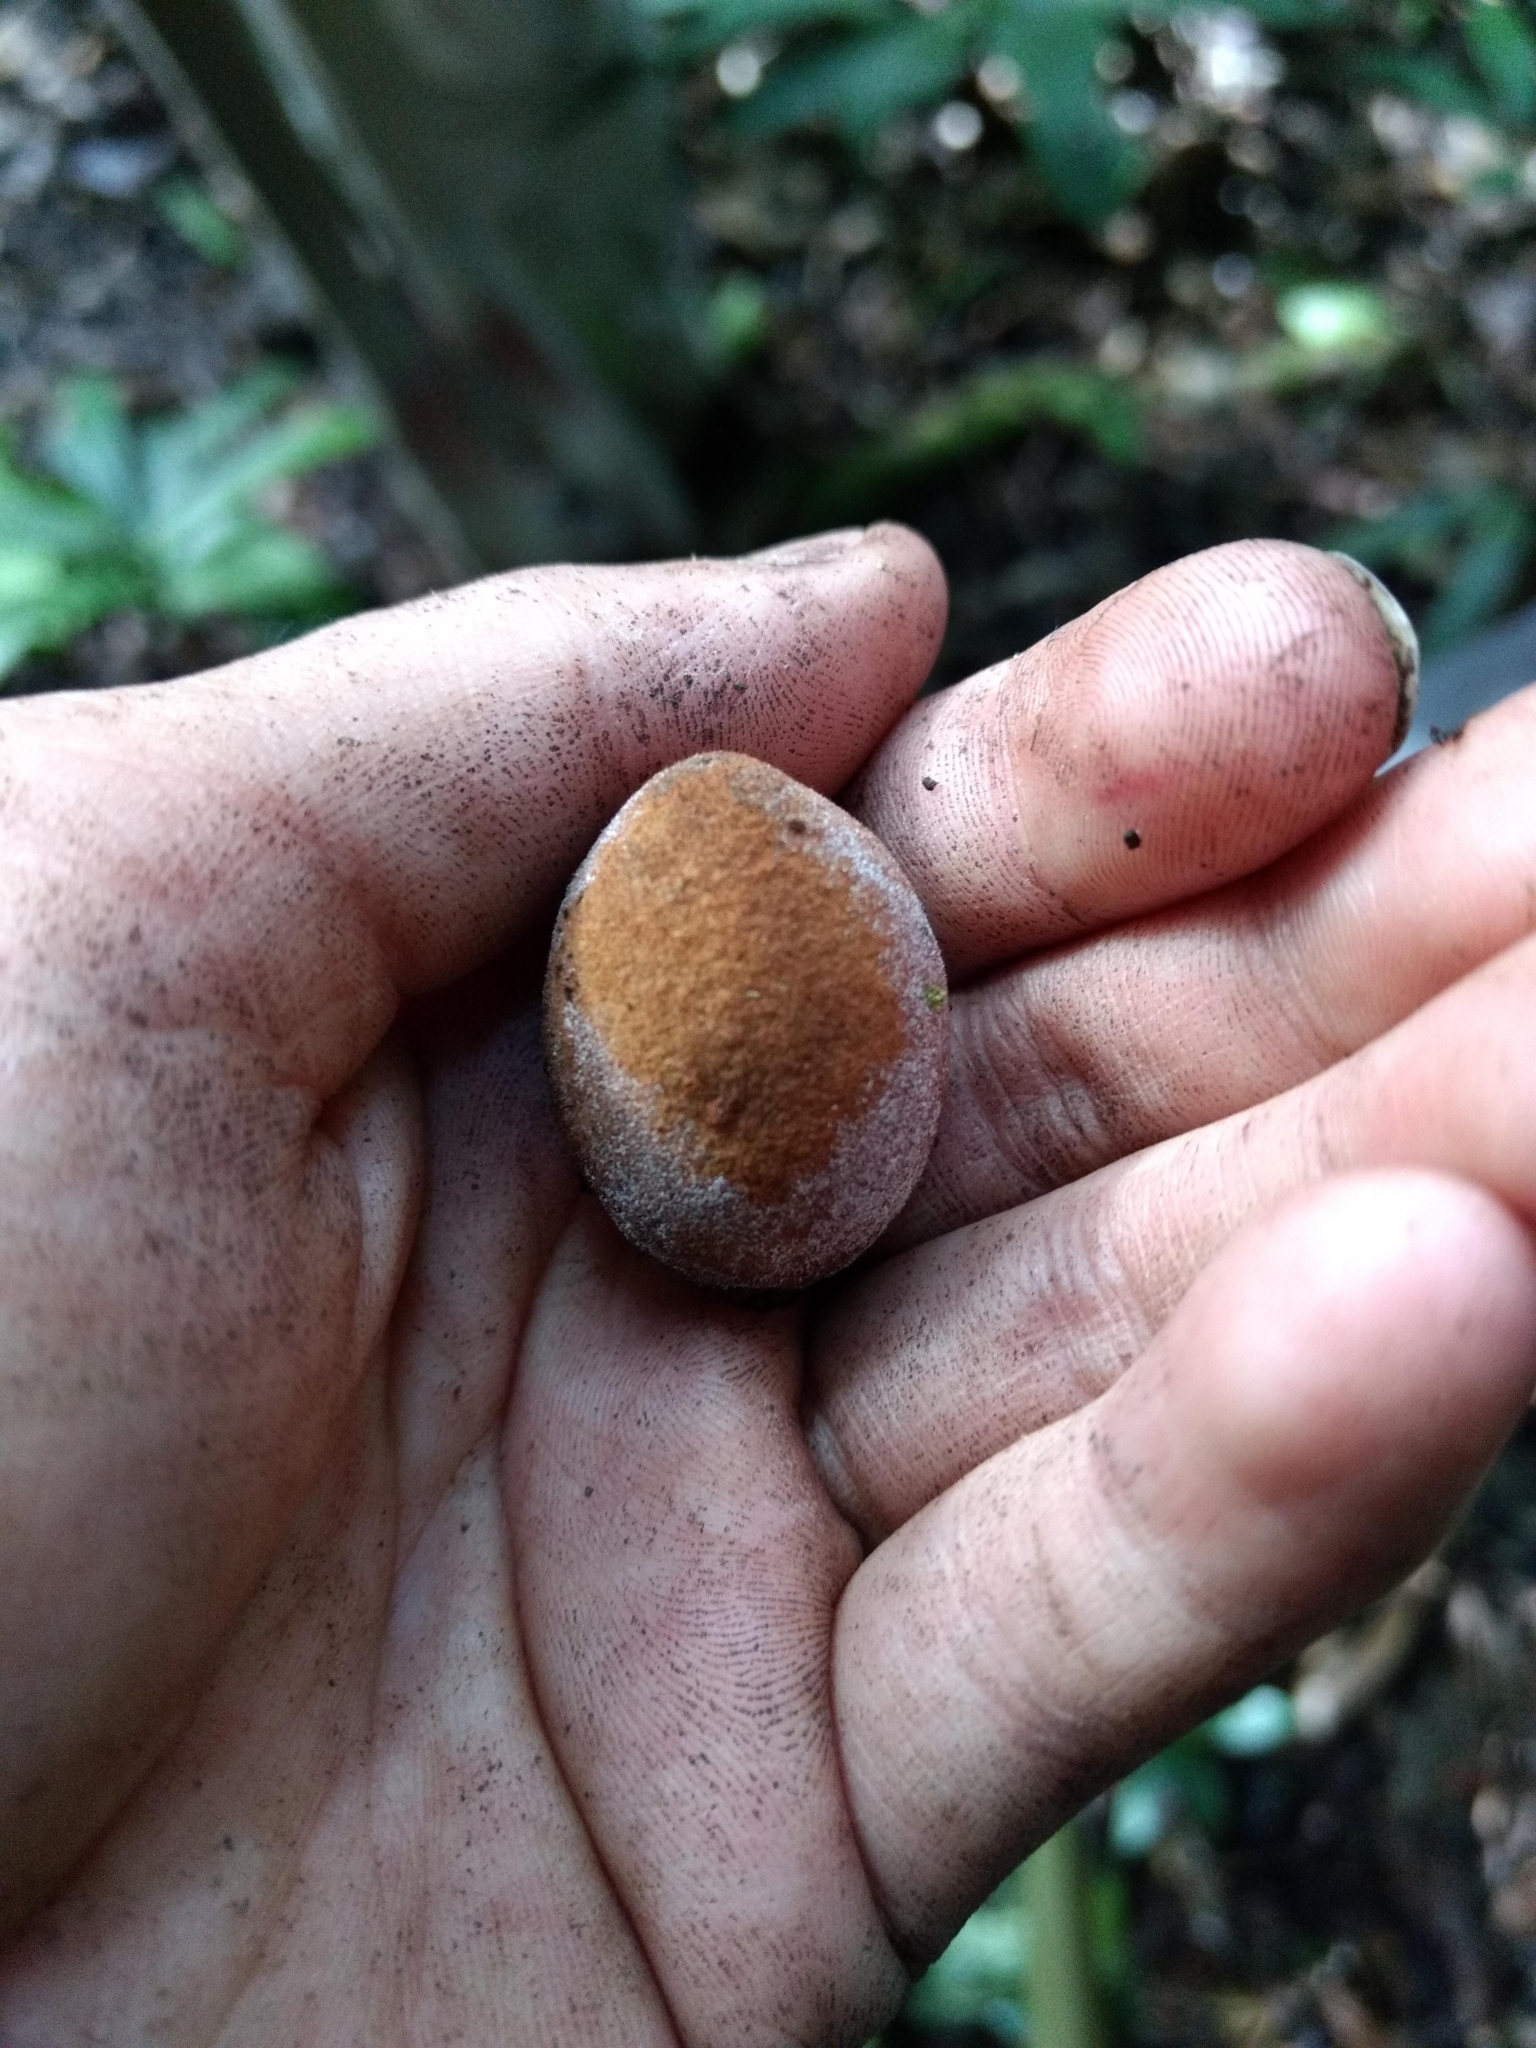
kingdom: Plantae
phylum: Tracheophyta
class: Magnoliopsida
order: Ericales
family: Sapotaceae
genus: Manilkara
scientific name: Manilkara zapota
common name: Sapodilla
